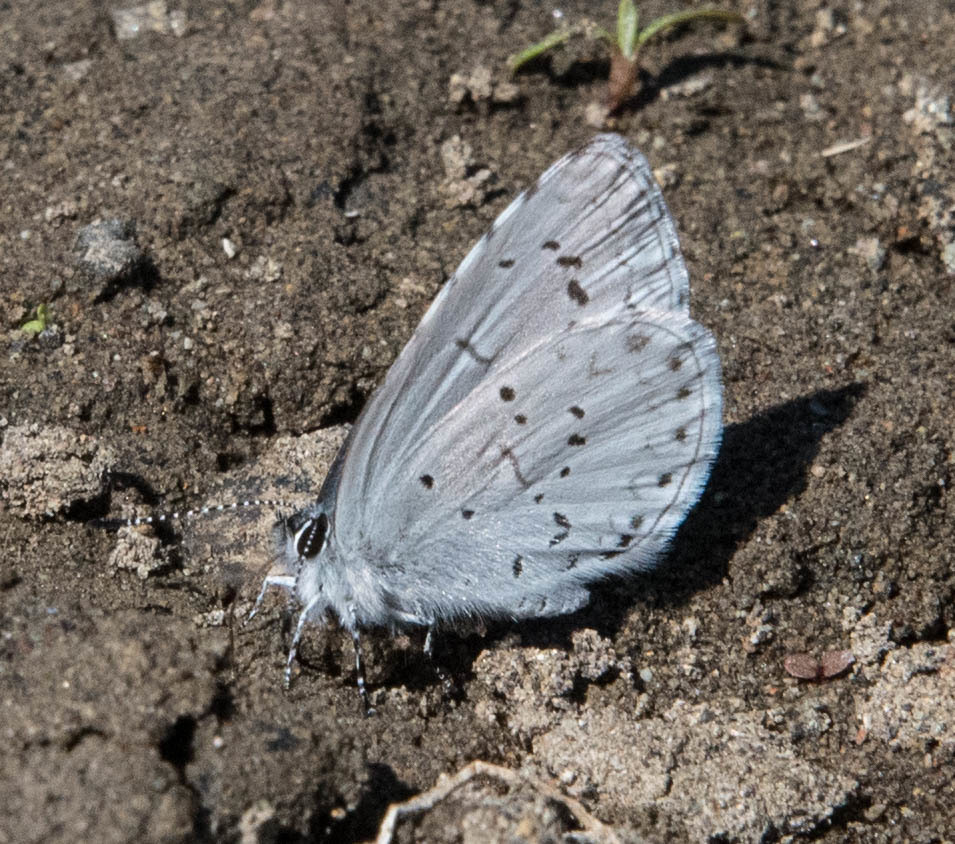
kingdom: Animalia
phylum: Arthropoda
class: Insecta
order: Lepidoptera
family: Lycaenidae
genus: Celastrina
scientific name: Celastrina ladon
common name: Spring azure
